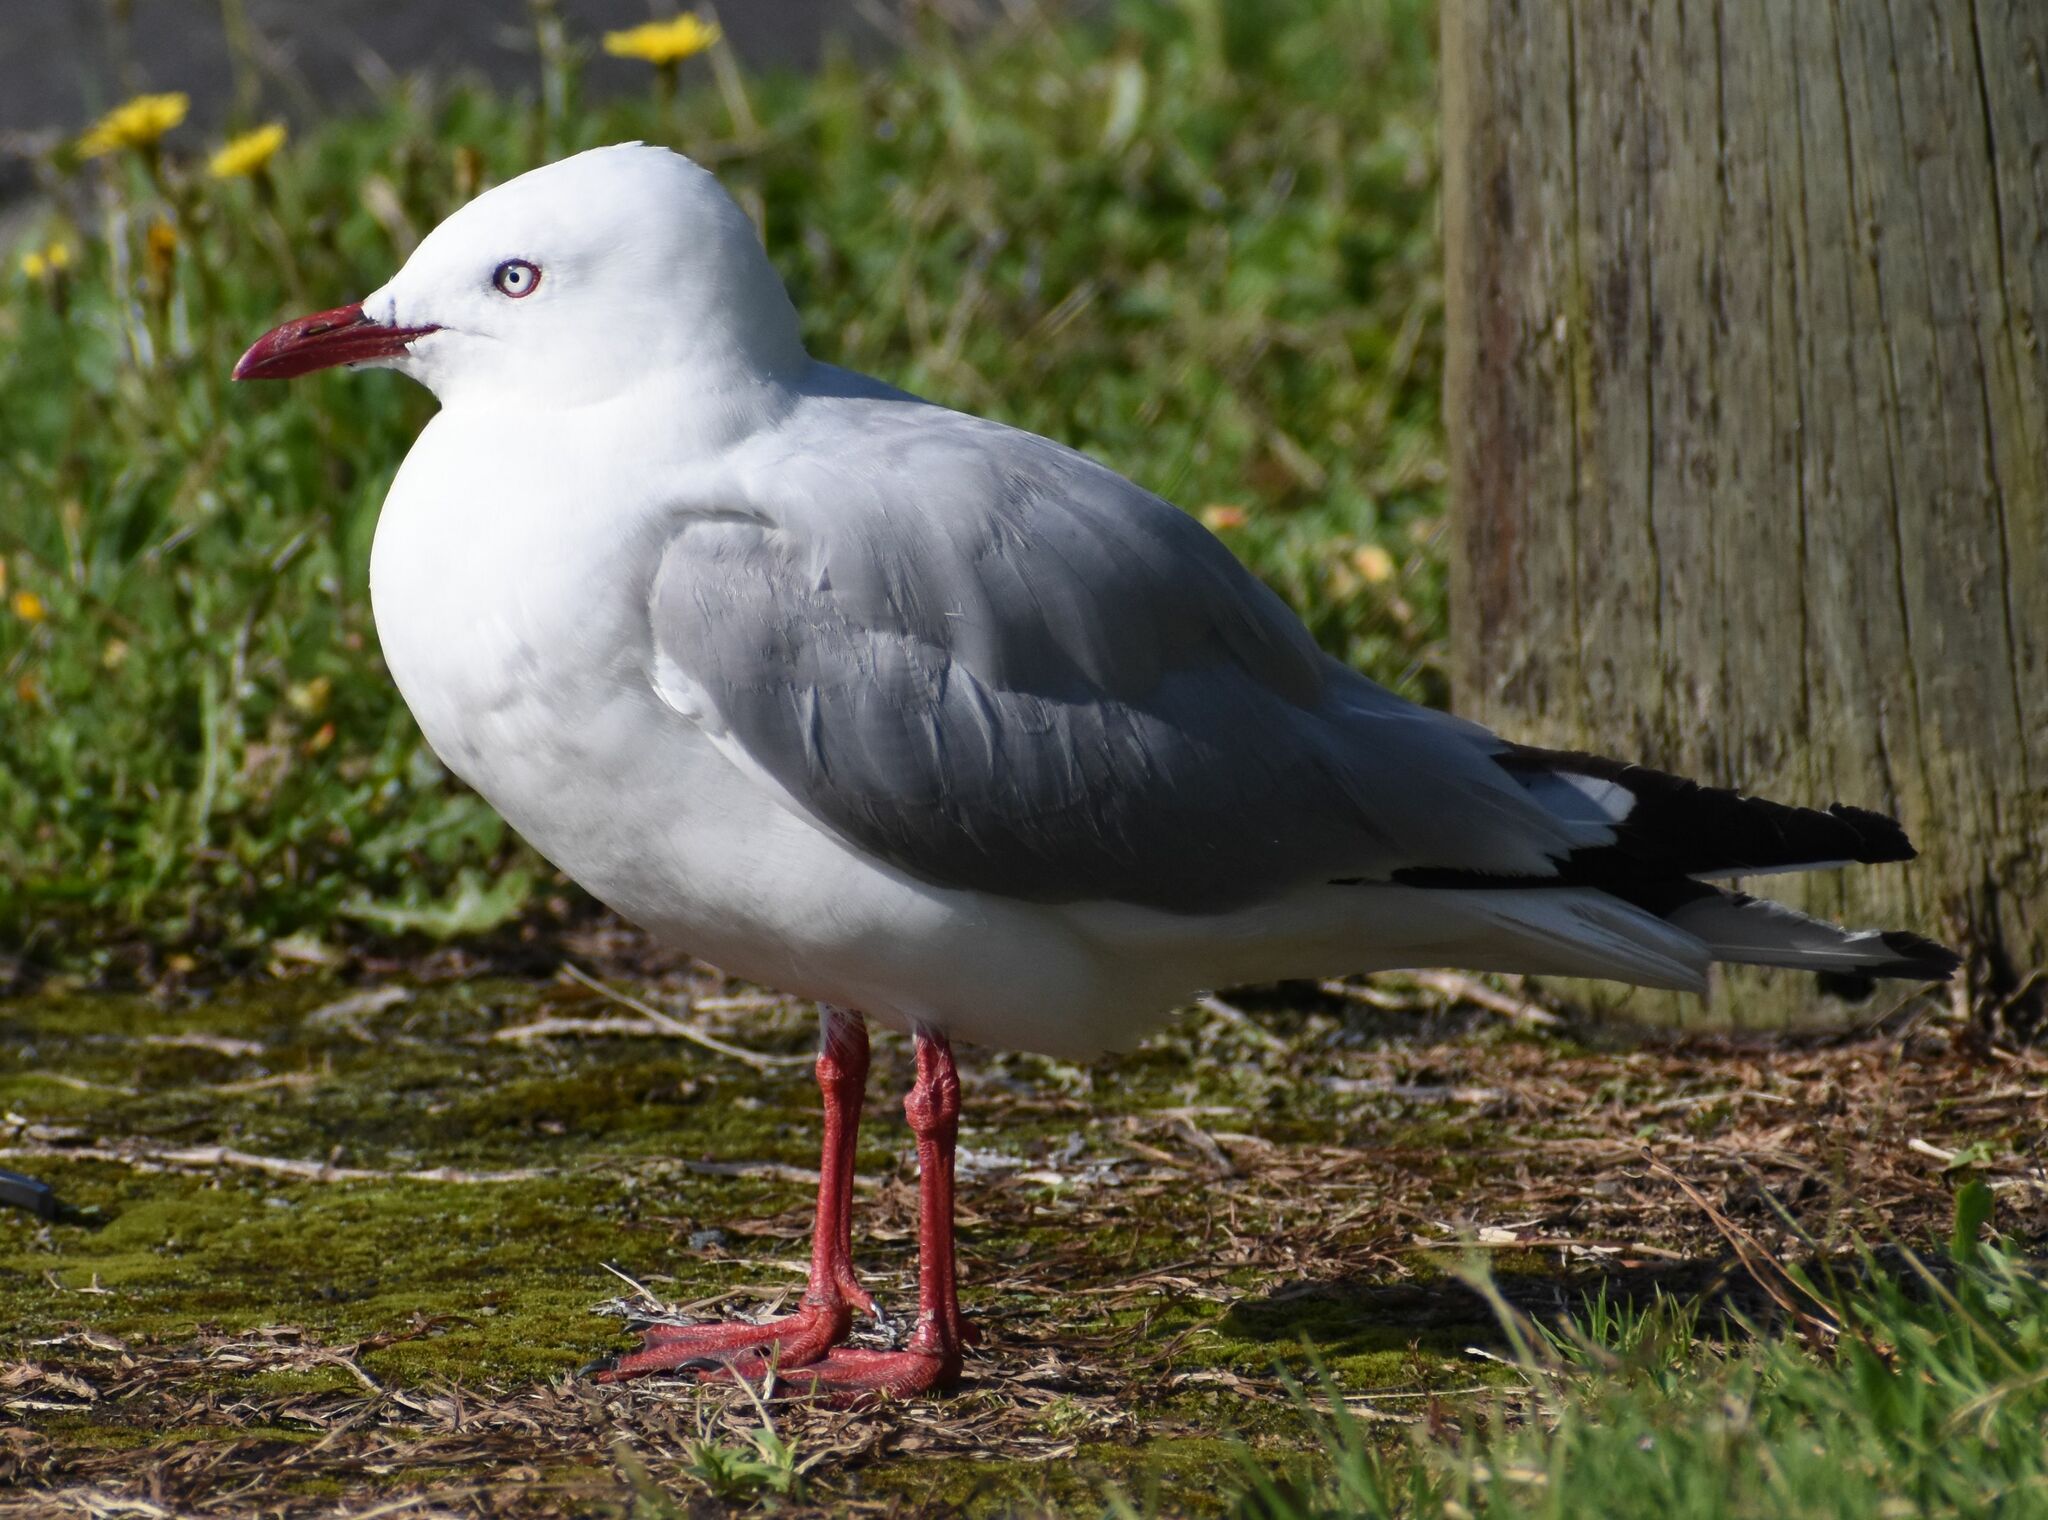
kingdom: Animalia
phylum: Chordata
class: Aves
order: Charadriiformes
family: Laridae
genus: Chroicocephalus
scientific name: Chroicocephalus novaehollandiae
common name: Silver gull
